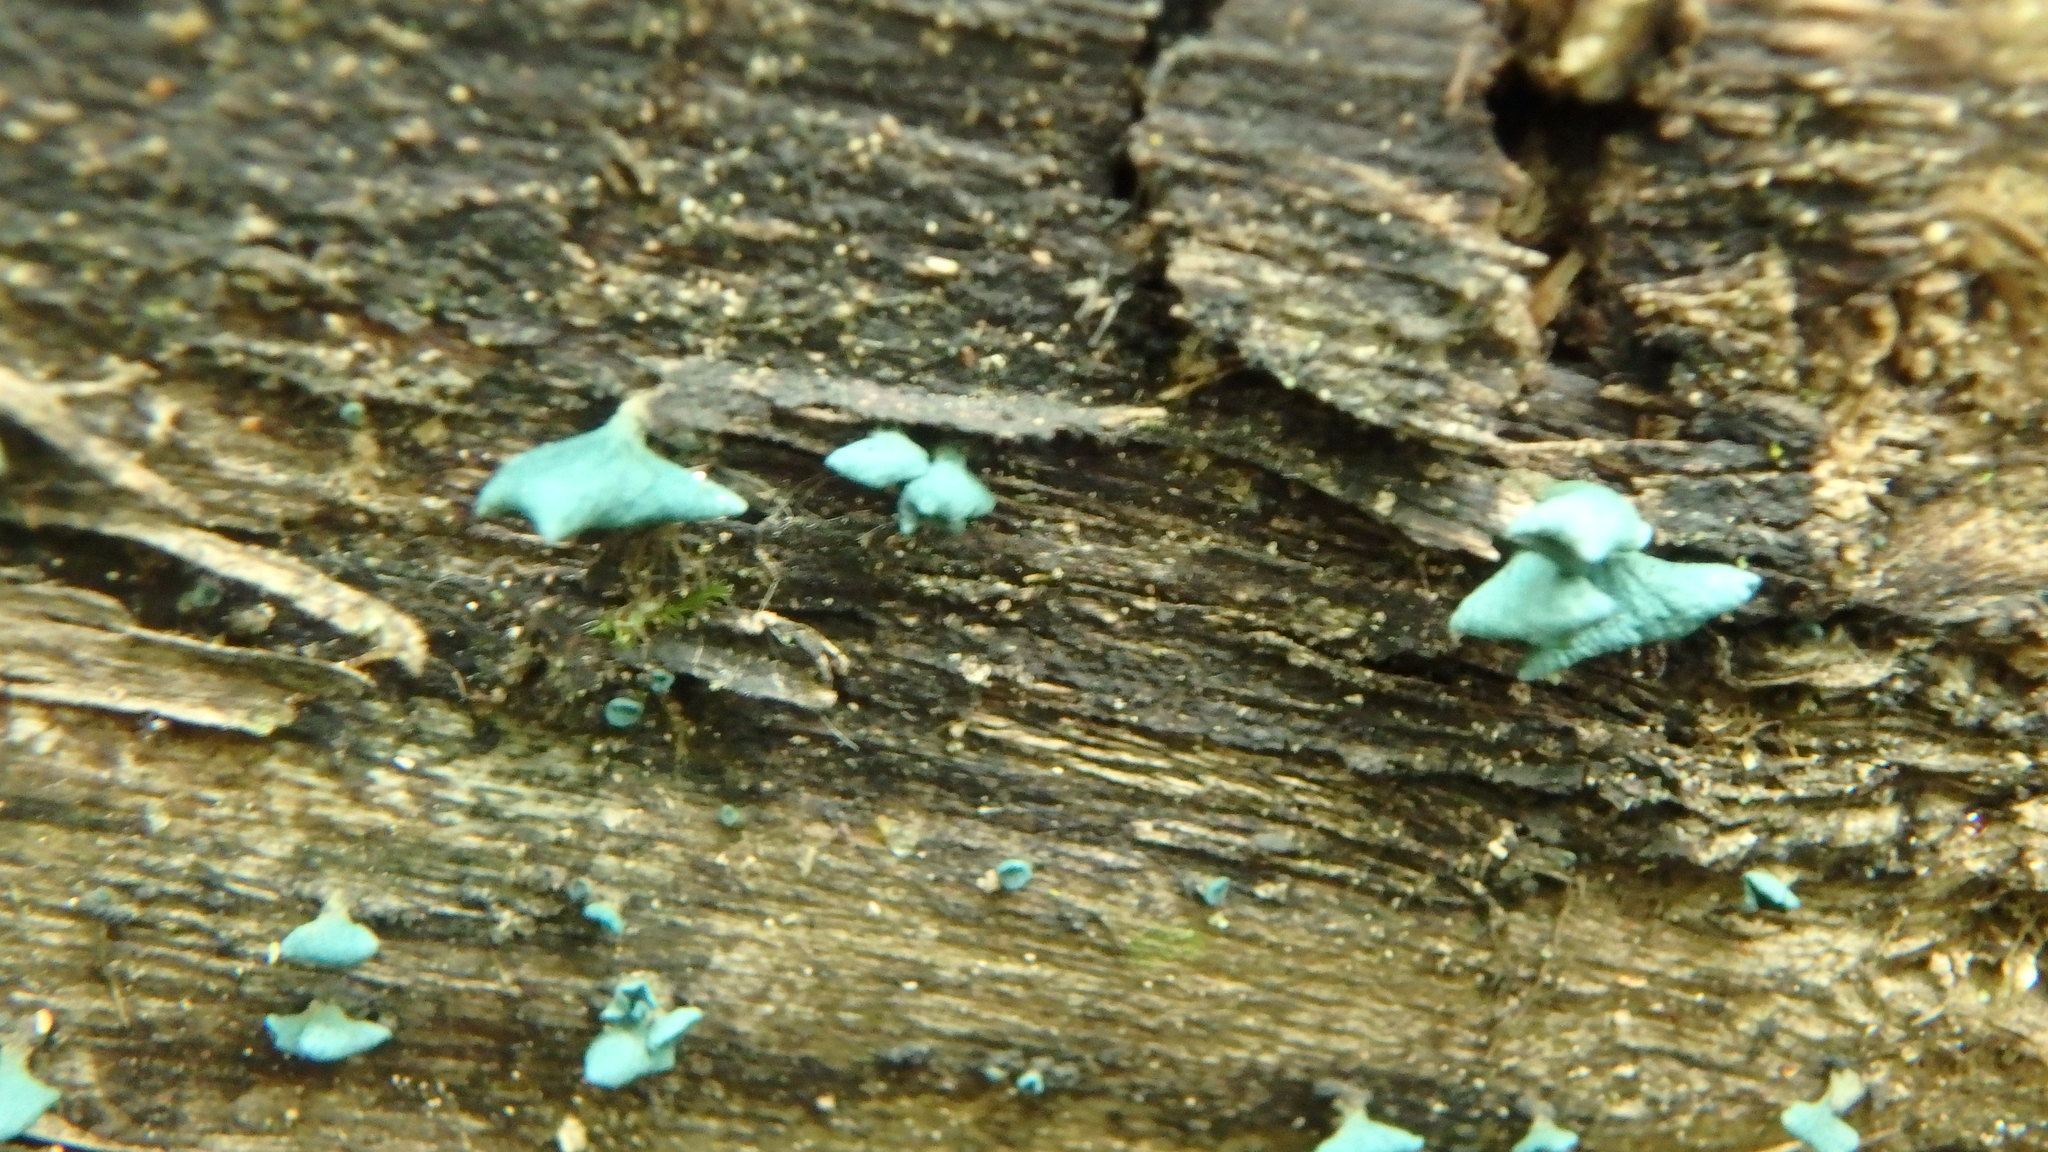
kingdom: Fungi
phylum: Ascomycota
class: Leotiomycetes
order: Helotiales
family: Chlorociboriaceae
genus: Chlorociboria
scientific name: Chlorociboria
